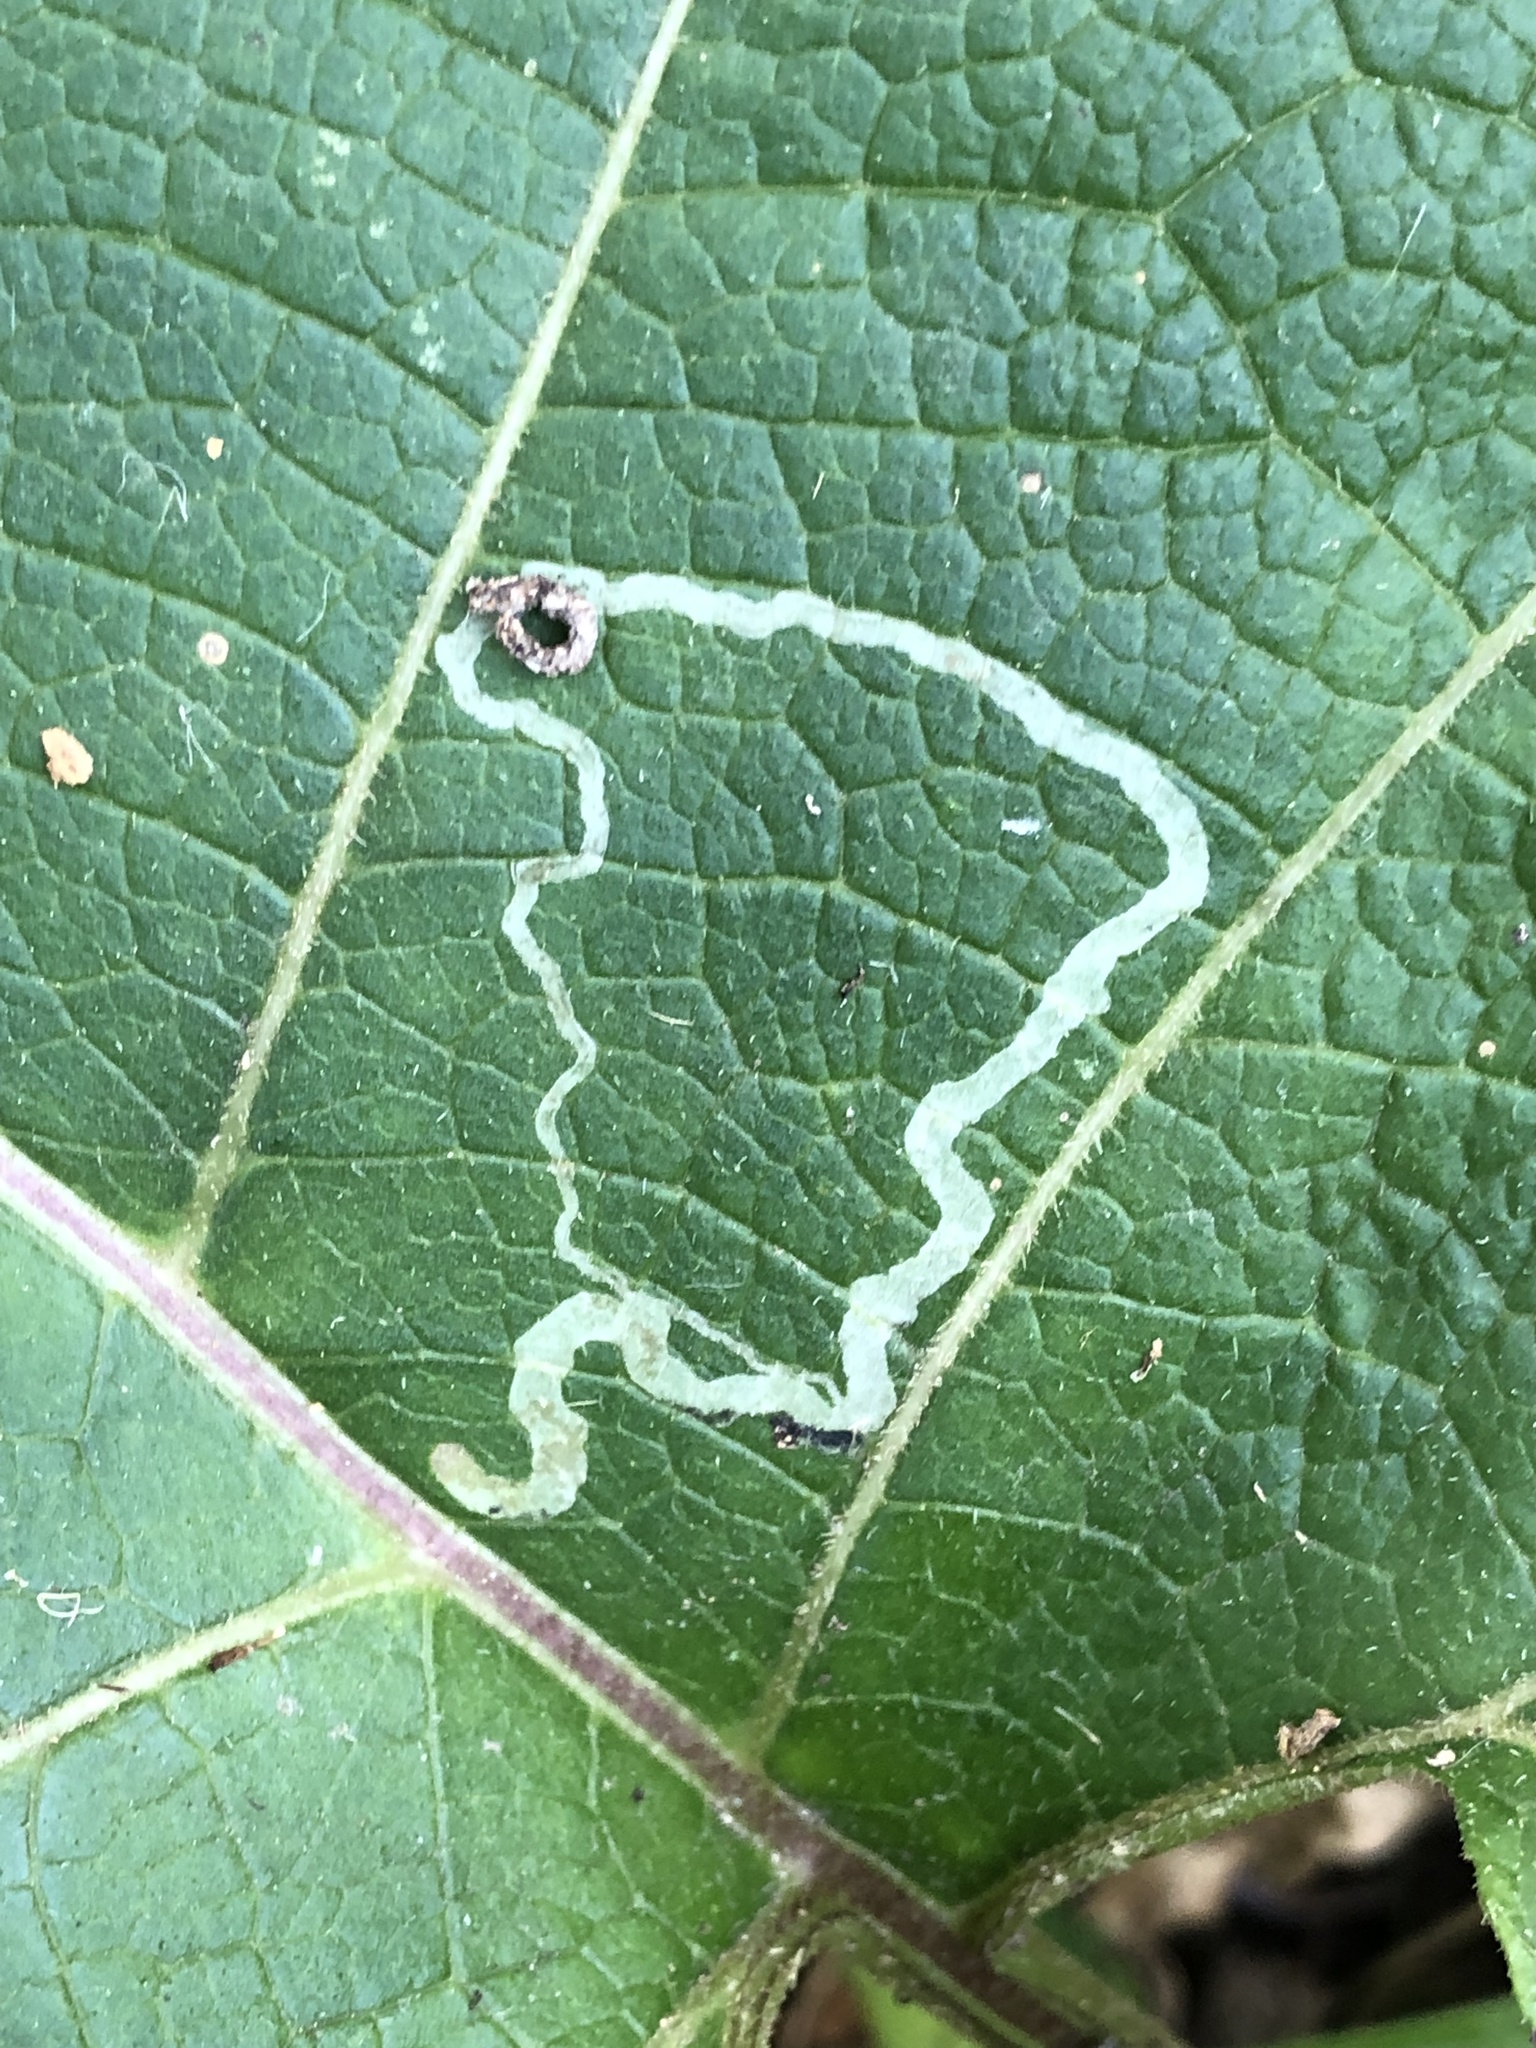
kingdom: Animalia
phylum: Arthropoda
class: Insecta
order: Diptera
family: Agromyzidae
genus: Liriomyza
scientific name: Liriomyza arctii
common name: Burdock leafminer
